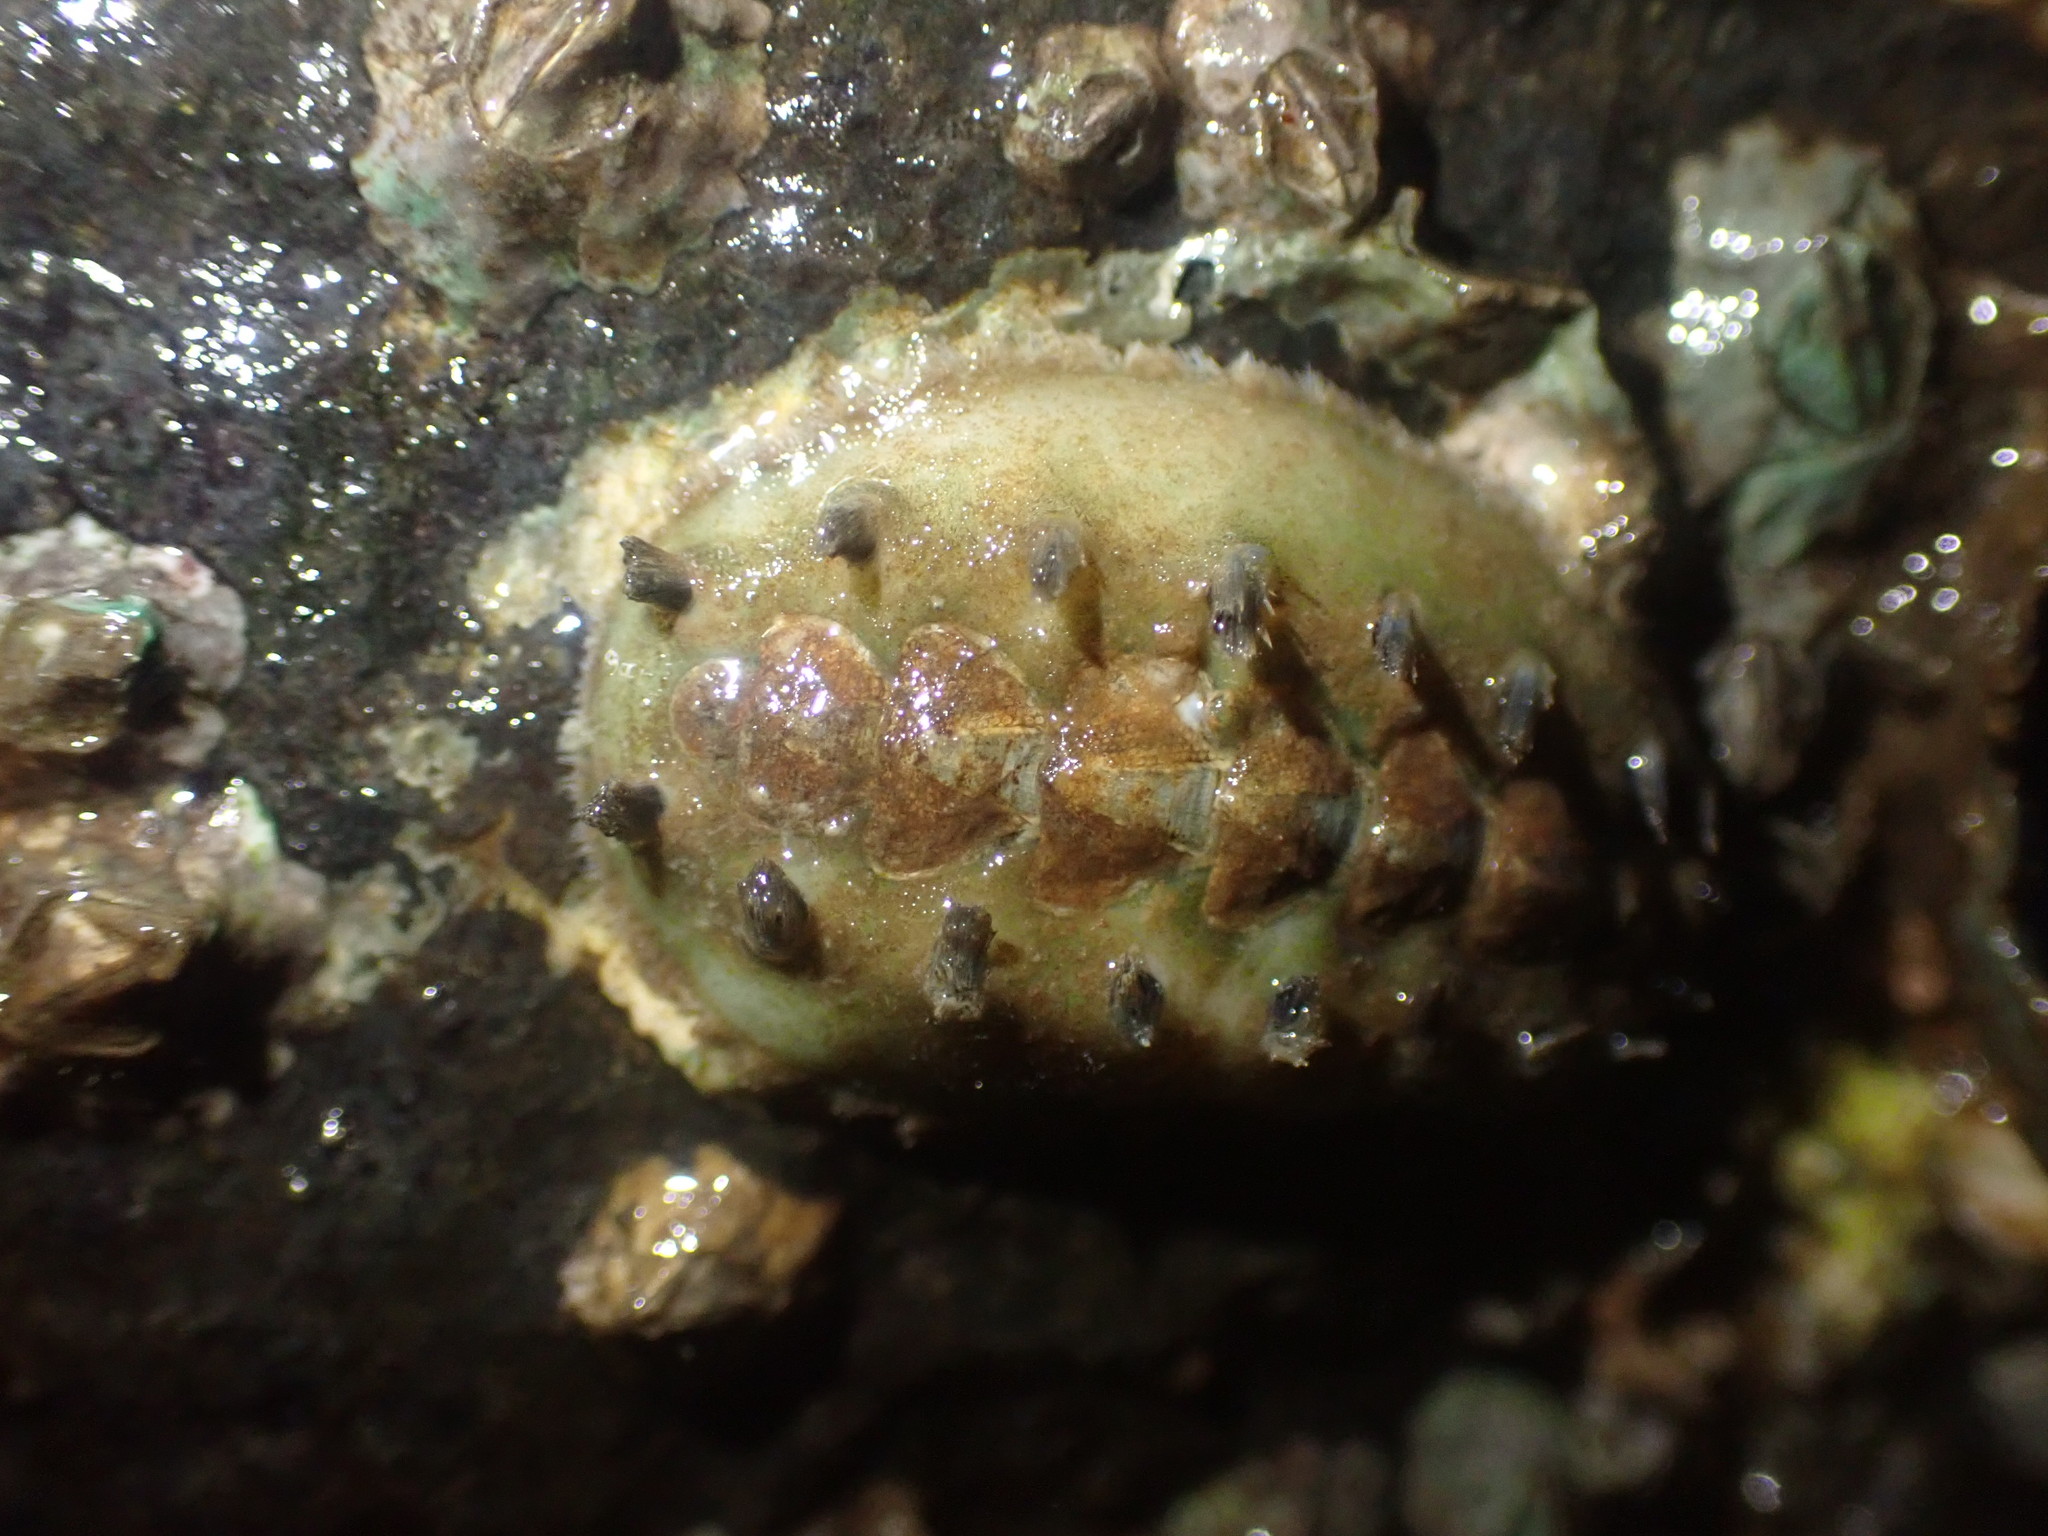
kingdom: Animalia
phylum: Mollusca
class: Polyplacophora
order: Chitonida
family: Acanthochitonidae
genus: Acanthochitona
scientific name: Acanthochitona zelandica
